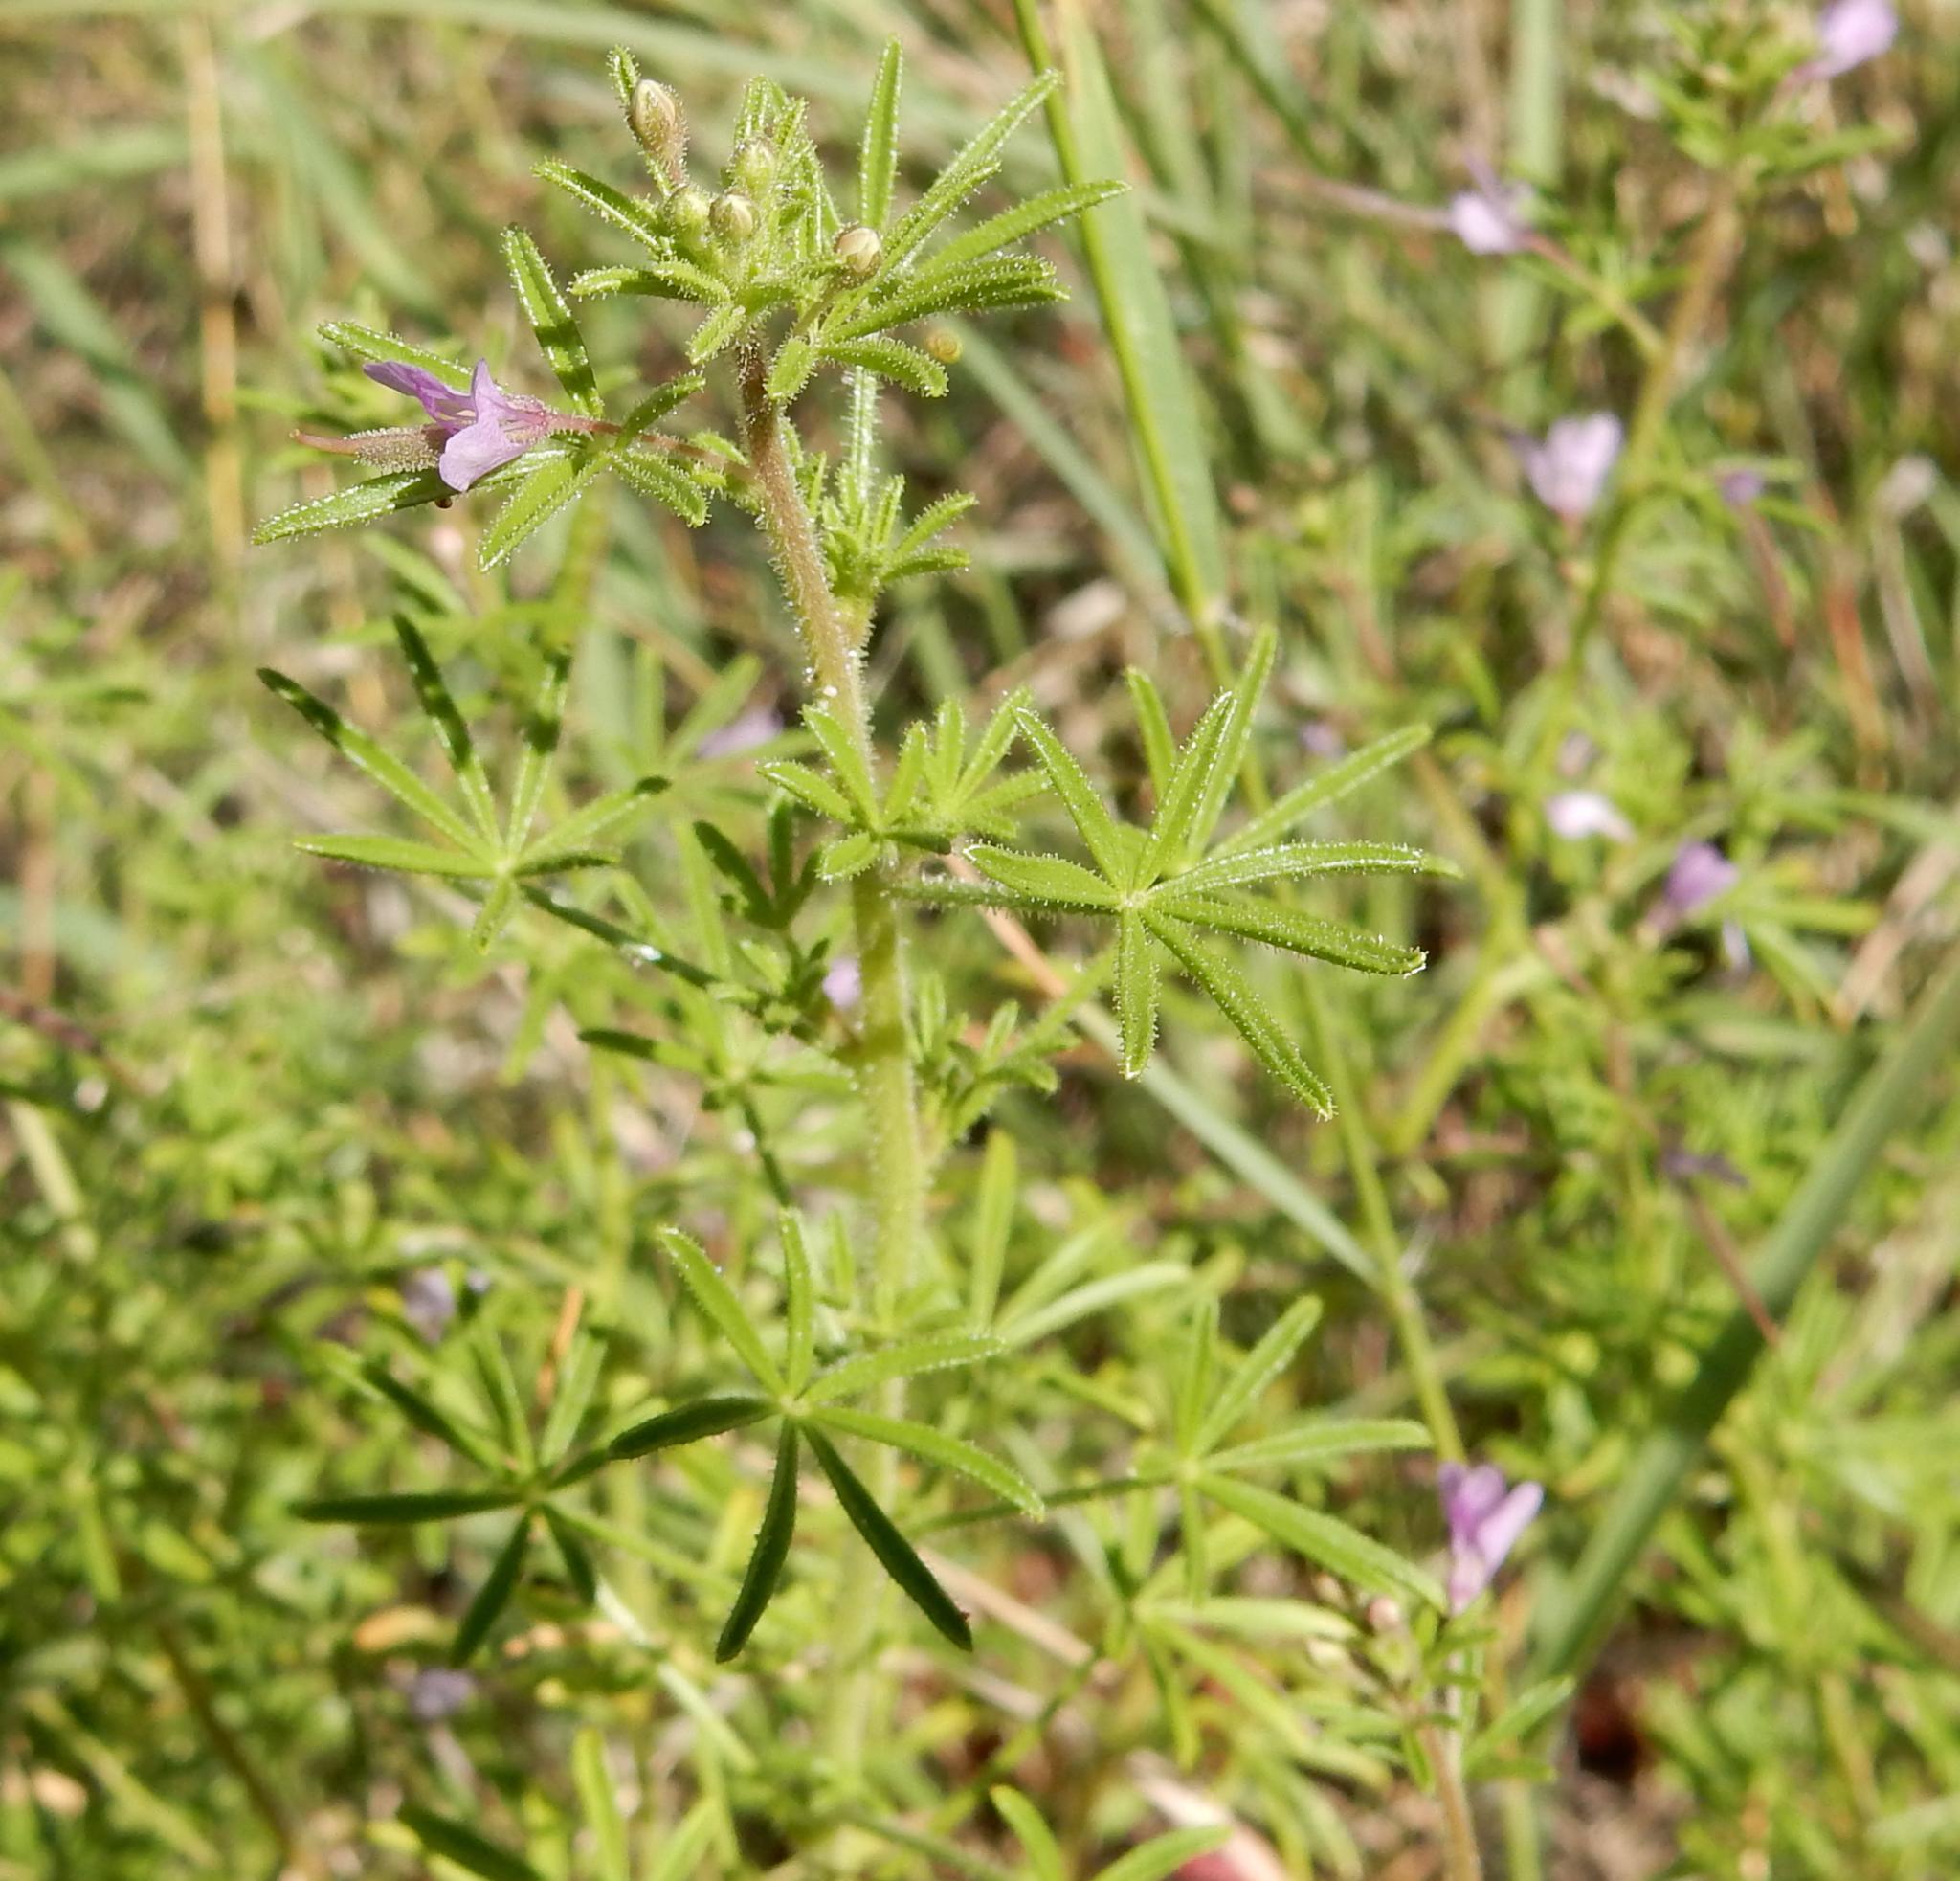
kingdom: Plantae
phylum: Tracheophyta
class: Magnoliopsida
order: Brassicales
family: Cleomaceae
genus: Sieruela
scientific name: Sieruela rubella
